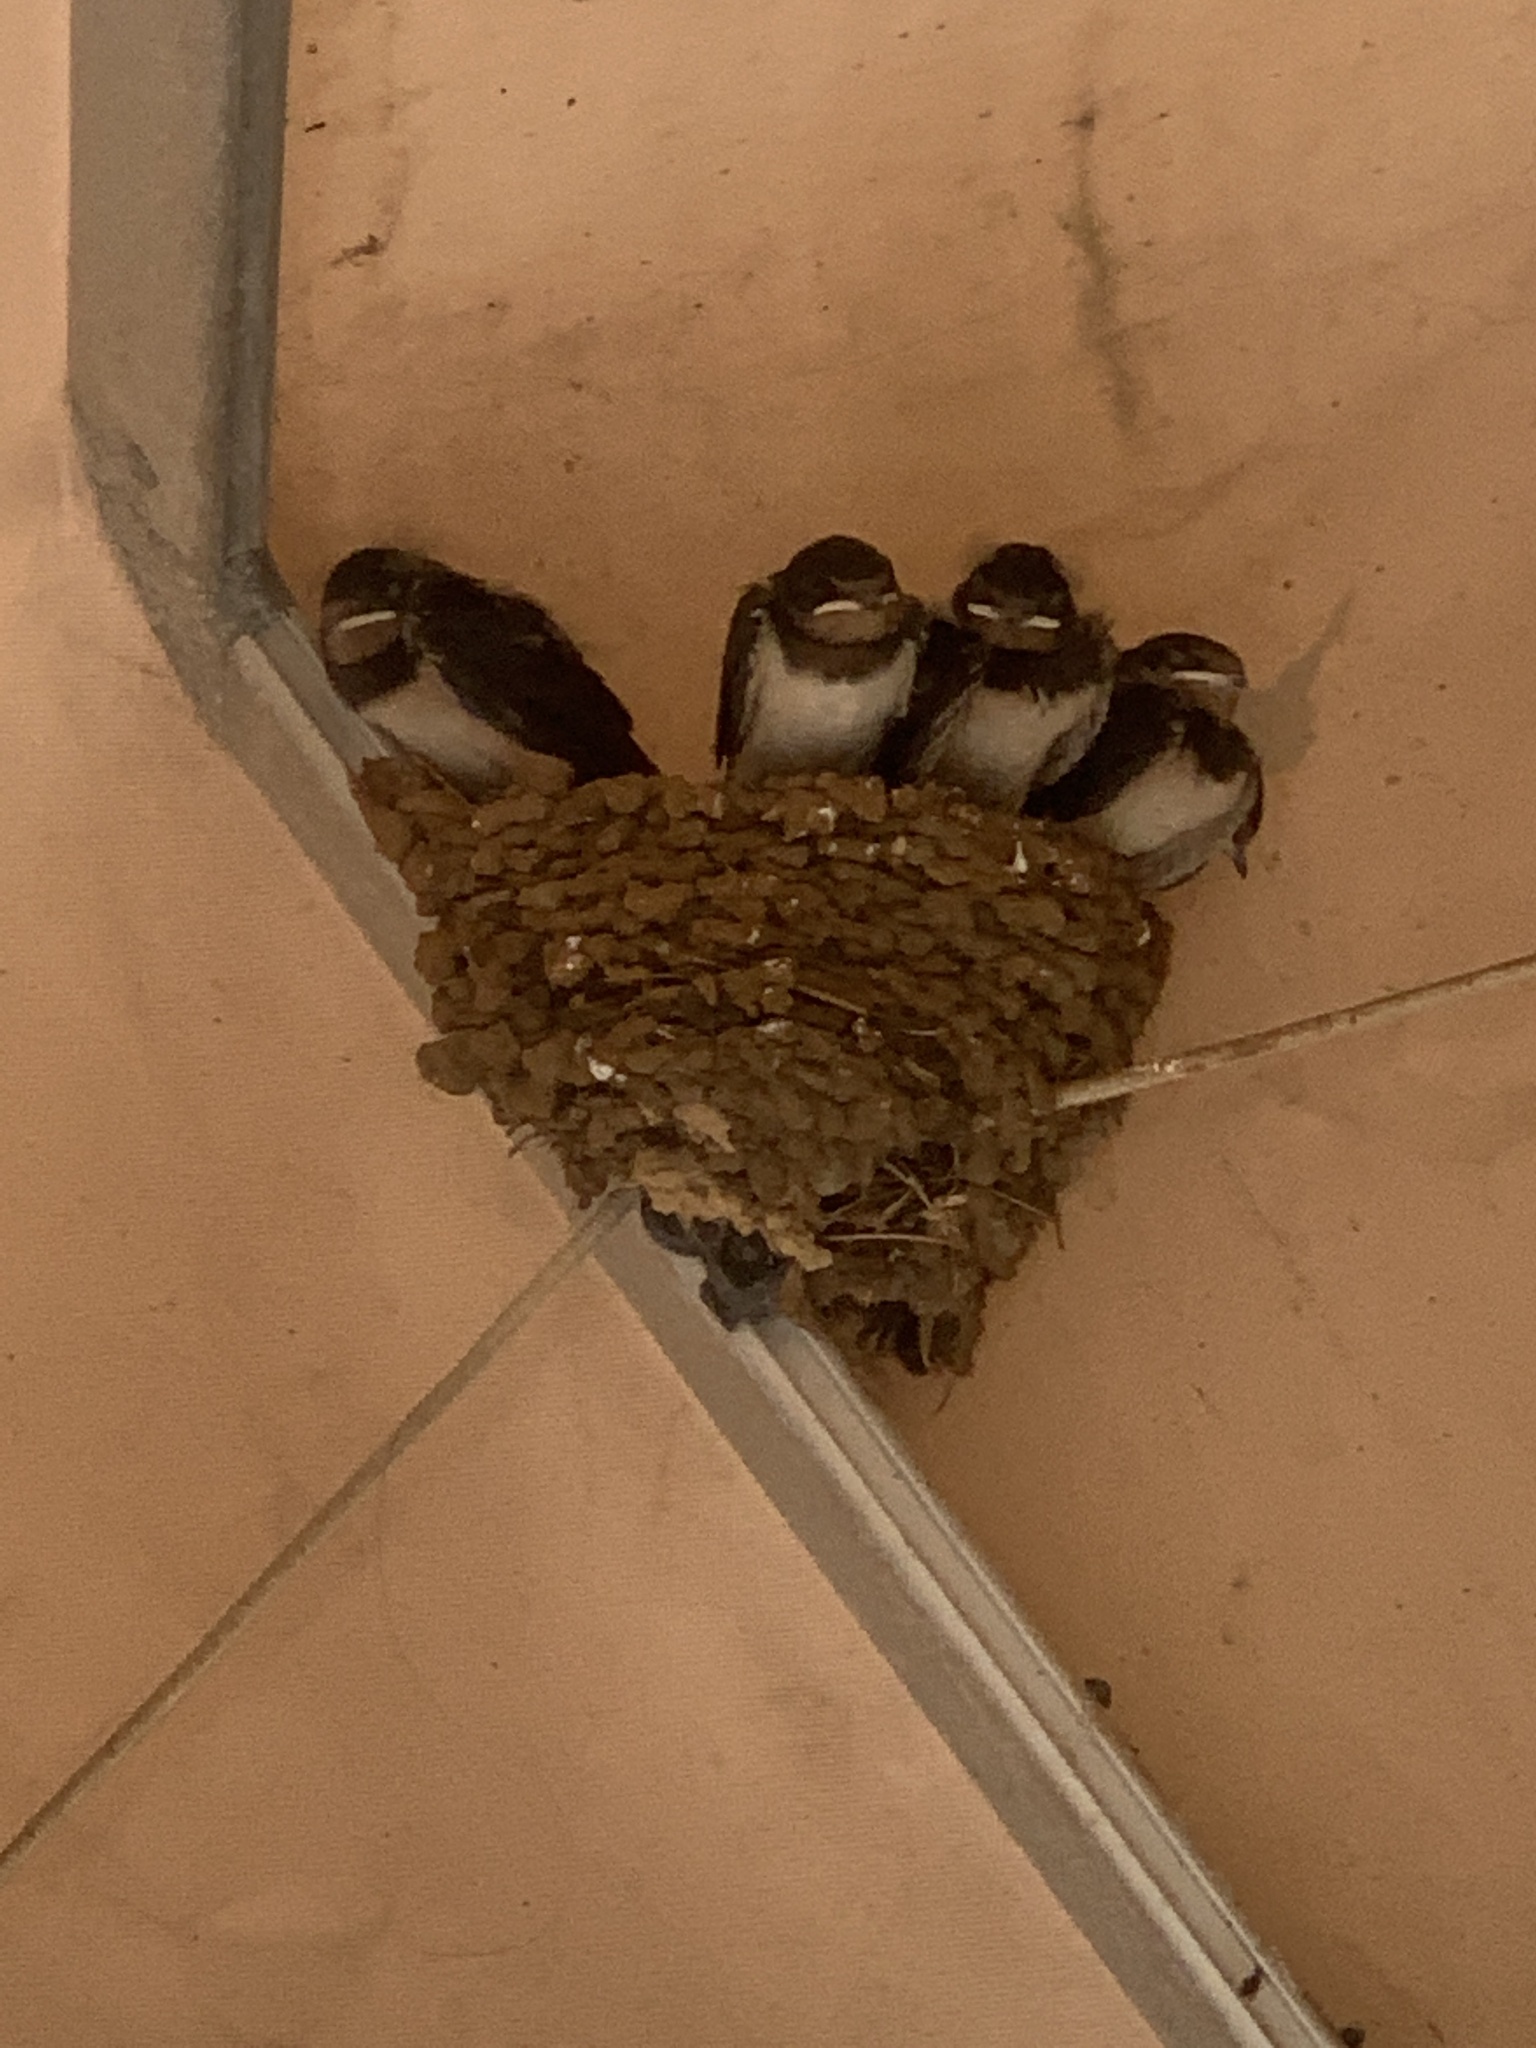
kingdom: Animalia
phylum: Chordata
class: Aves
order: Passeriformes
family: Hirundinidae
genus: Hirundo
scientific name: Hirundo rustica
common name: Barn swallow
